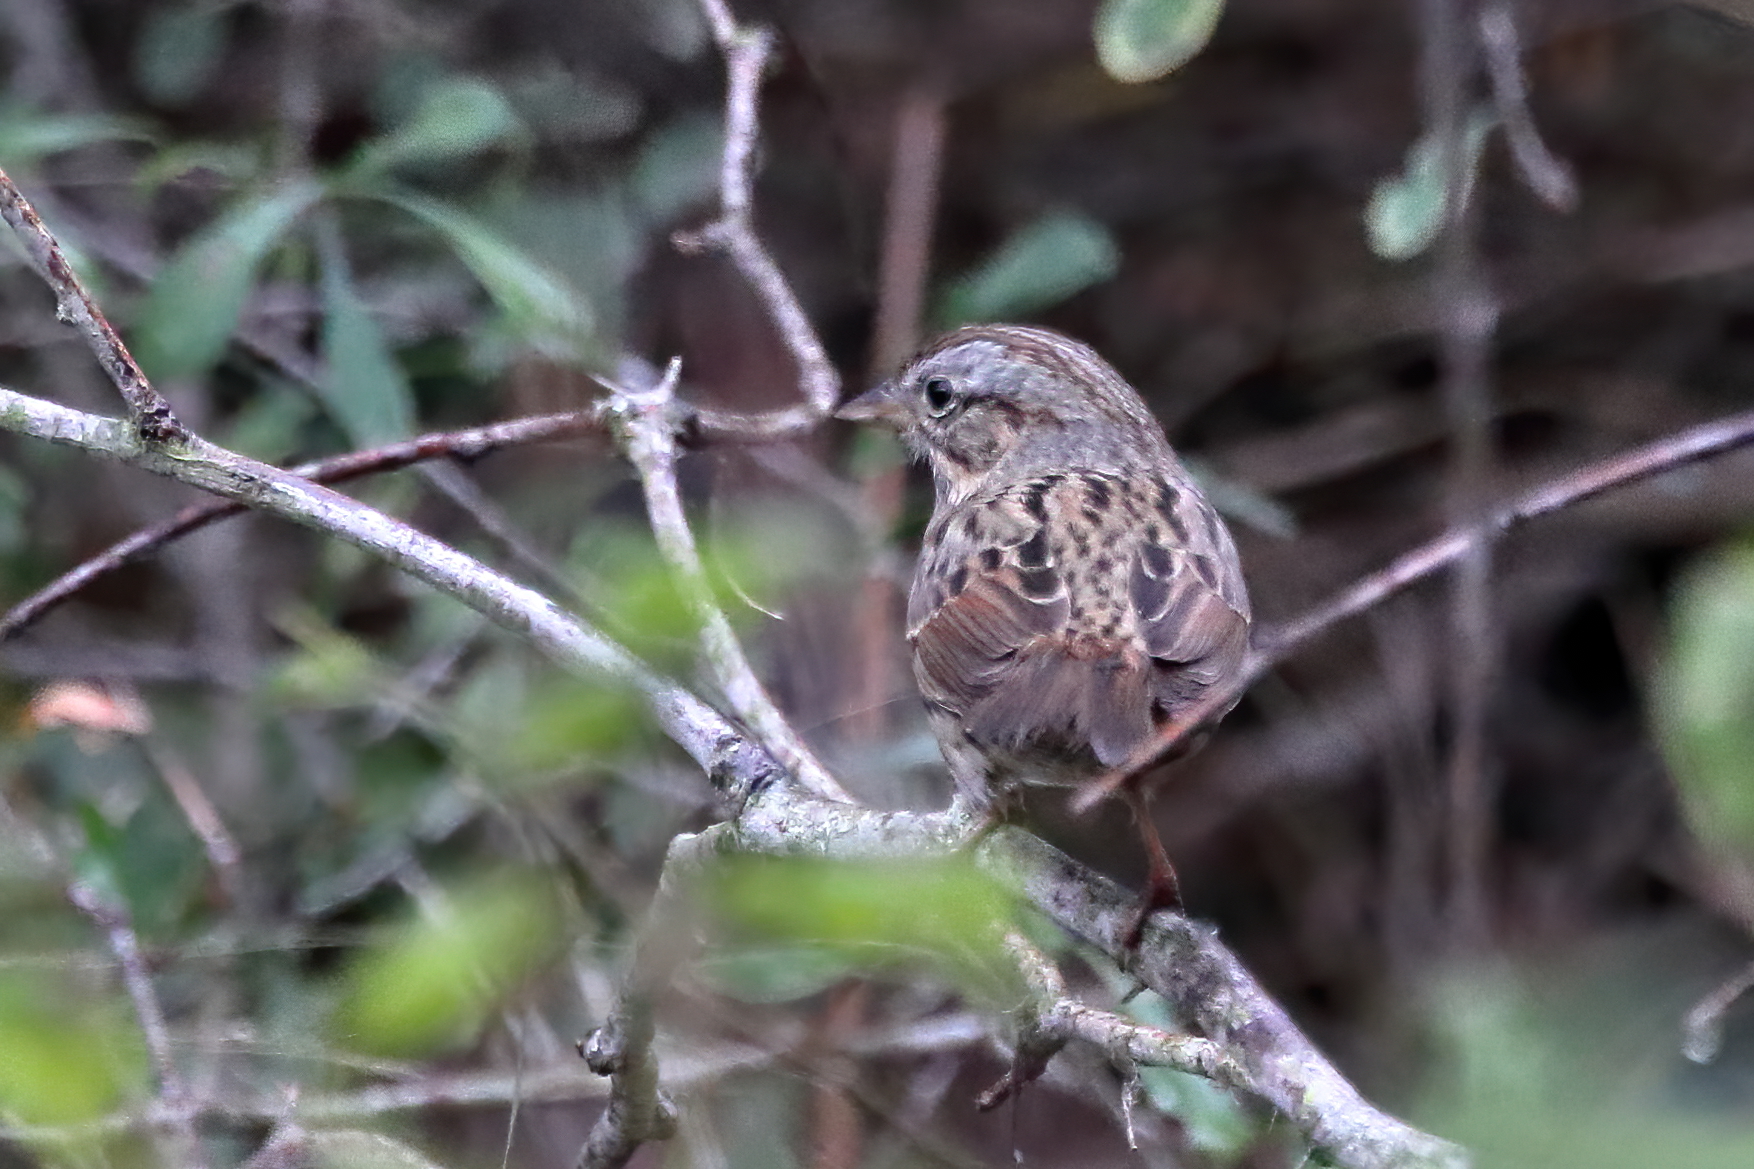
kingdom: Animalia
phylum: Chordata
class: Aves
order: Passeriformes
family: Passerellidae
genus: Melospiza
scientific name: Melospiza lincolnii
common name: Lincoln's sparrow
